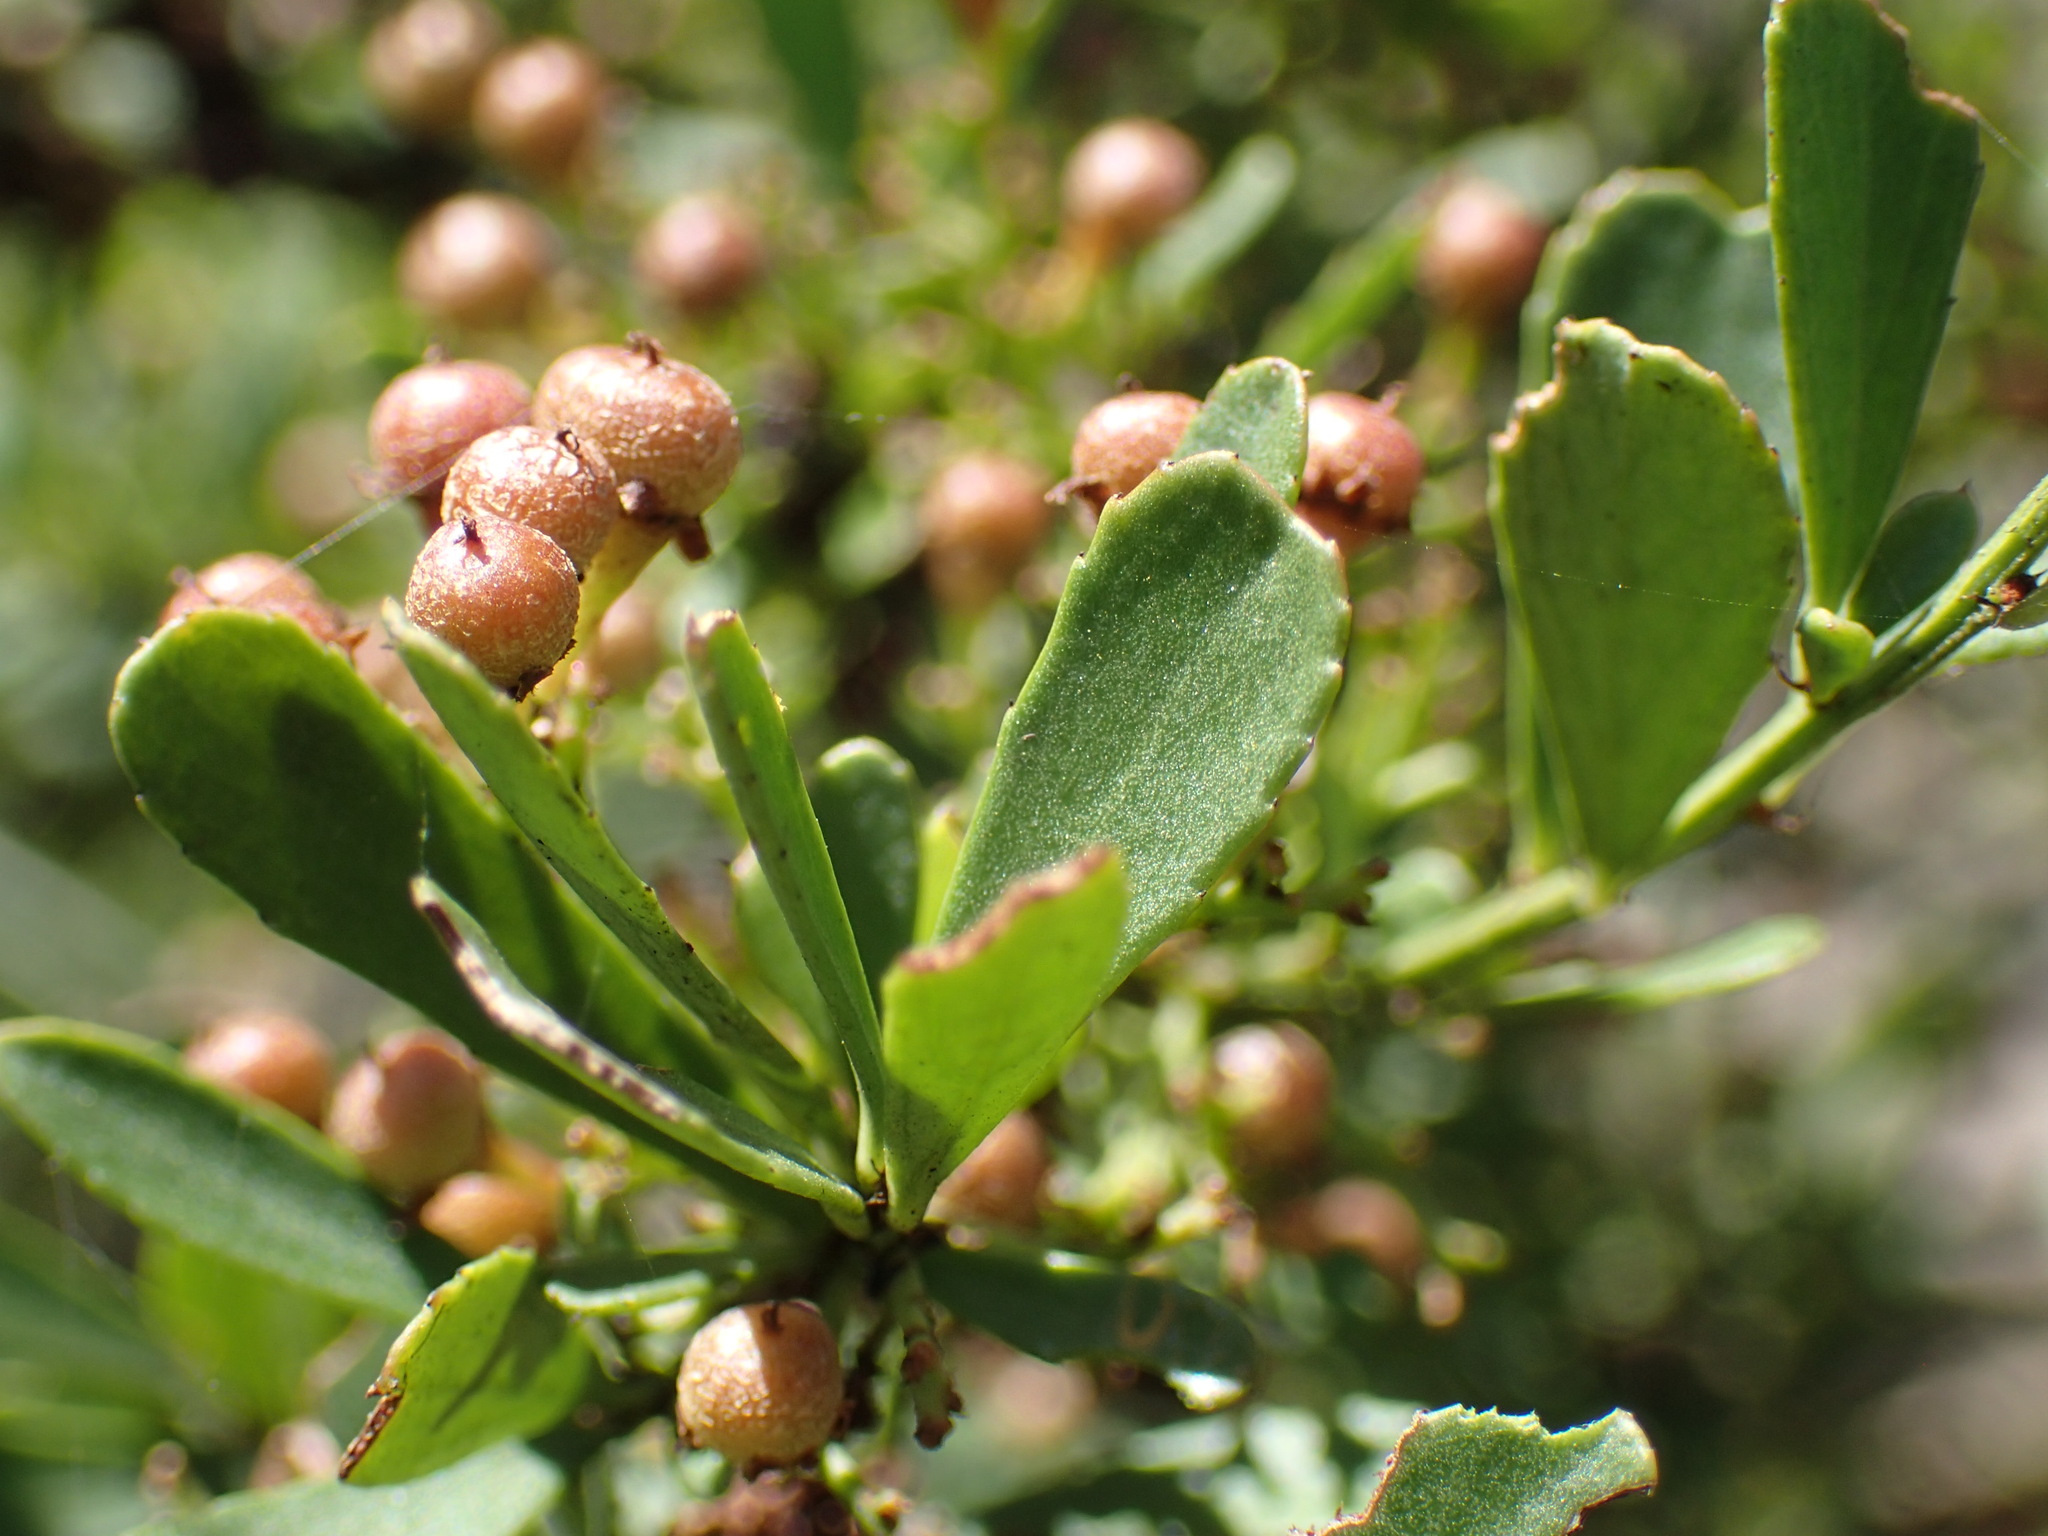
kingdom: Plantae
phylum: Tracheophyta
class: Magnoliopsida
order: Celastrales
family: Celastraceae
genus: Gymnosporia
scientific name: Gymnosporia heterophylla
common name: Angle-stem spikethorn
